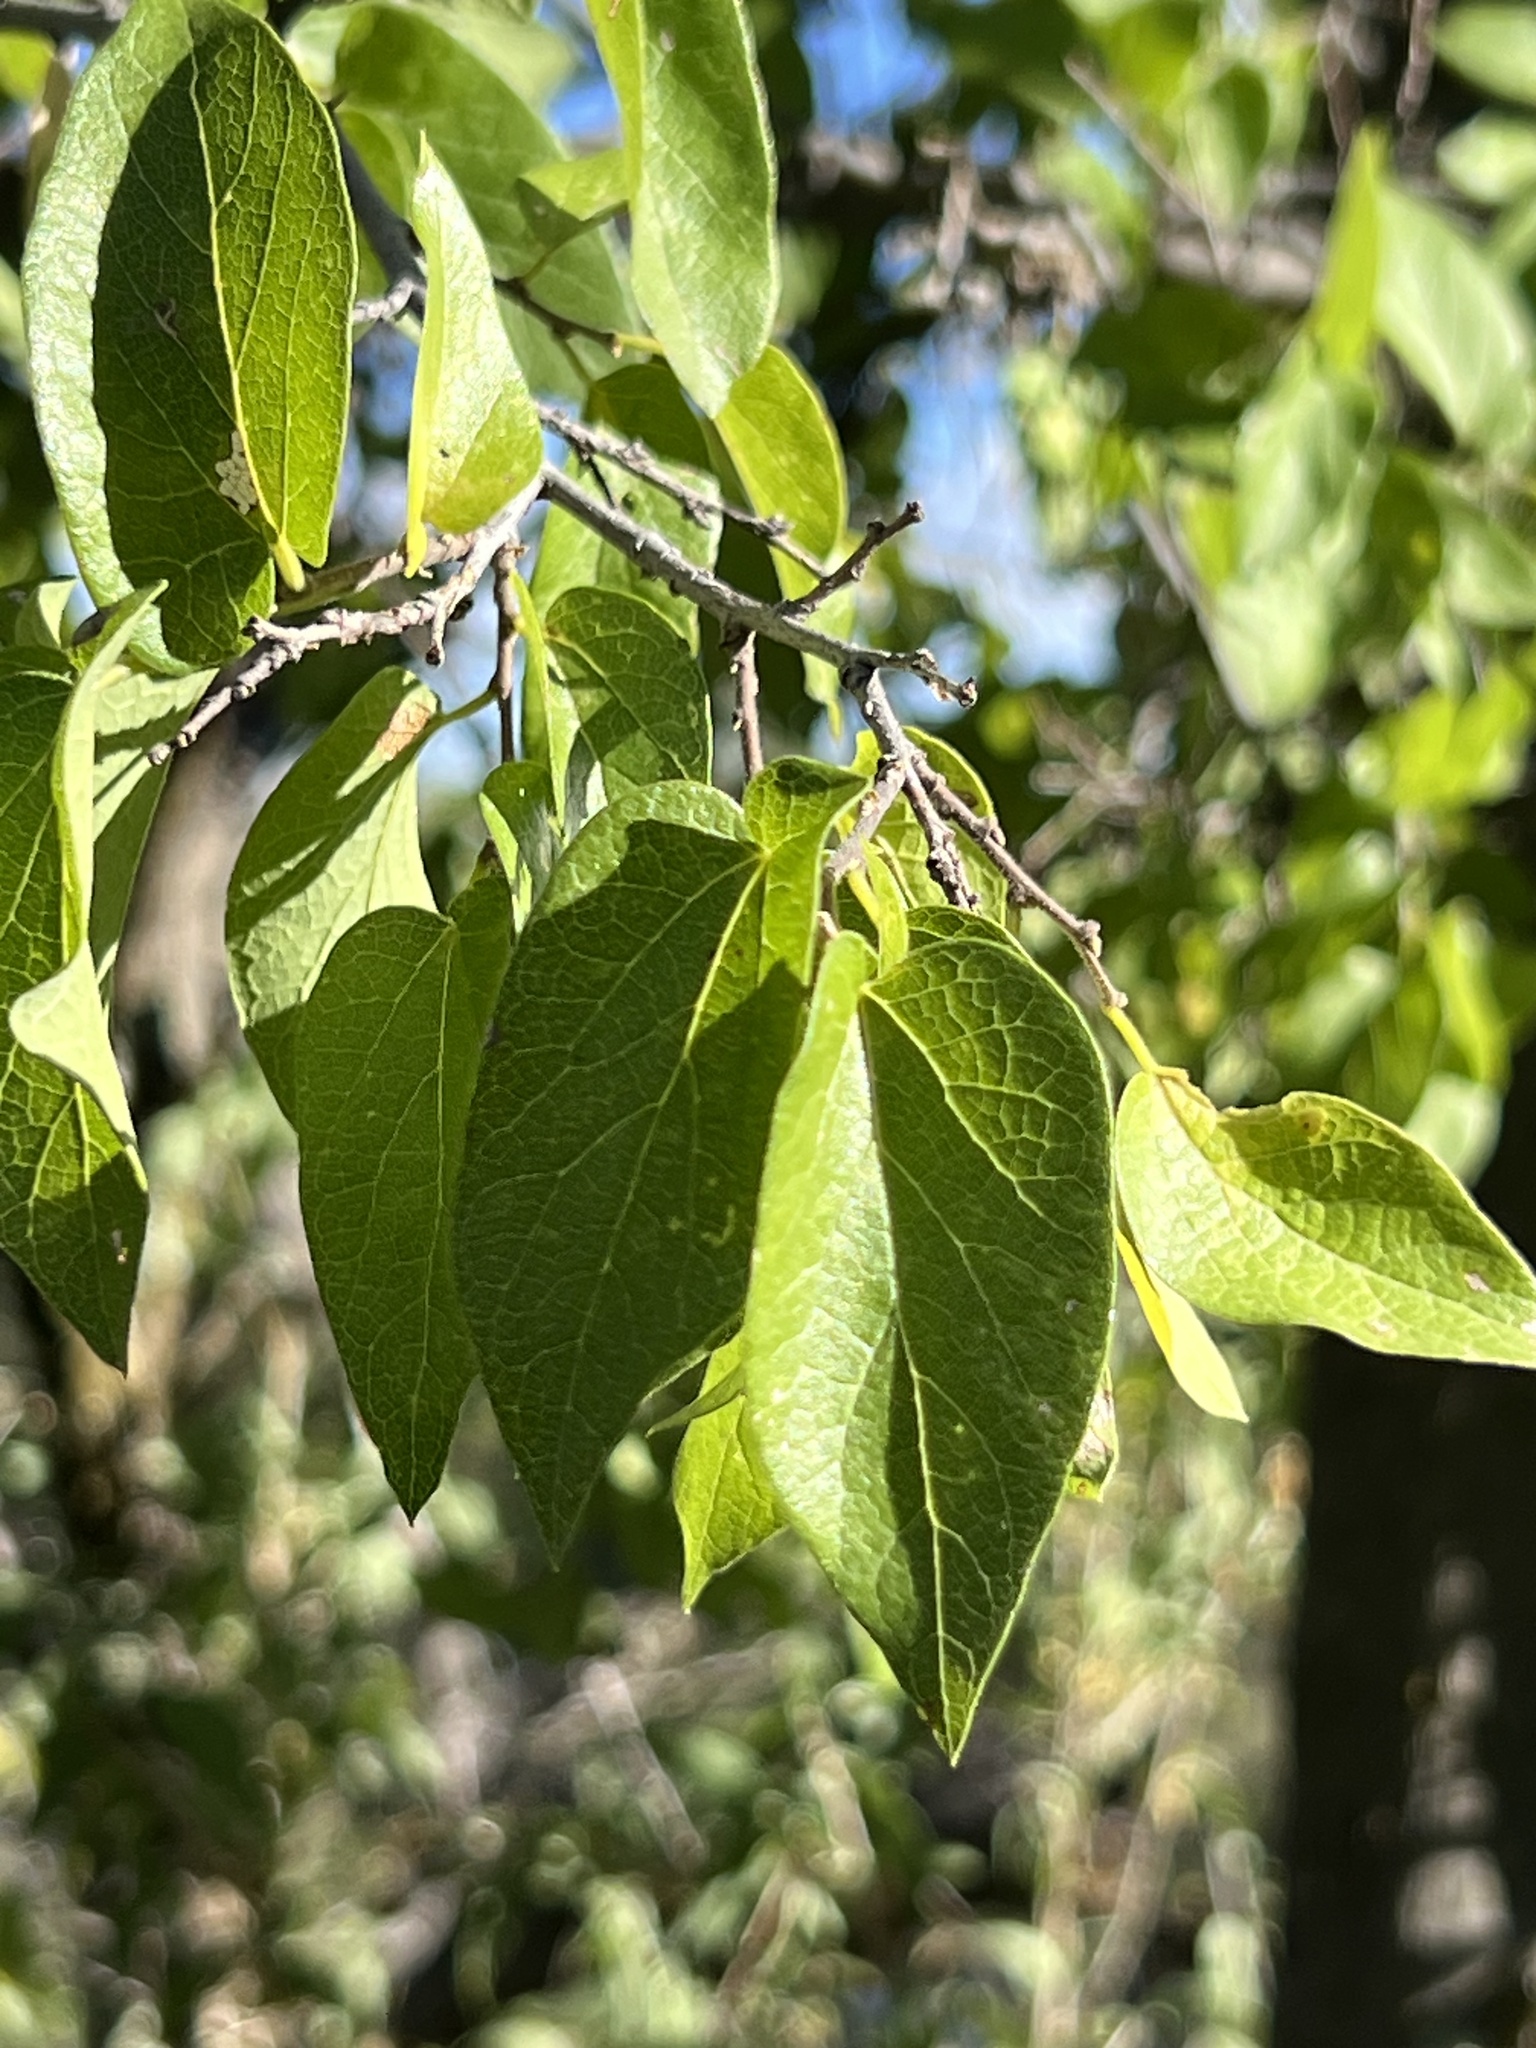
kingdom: Plantae
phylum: Tracheophyta
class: Magnoliopsida
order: Rosales
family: Cannabaceae
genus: Celtis
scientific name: Celtis reticulata
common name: Netleaf hackberry
